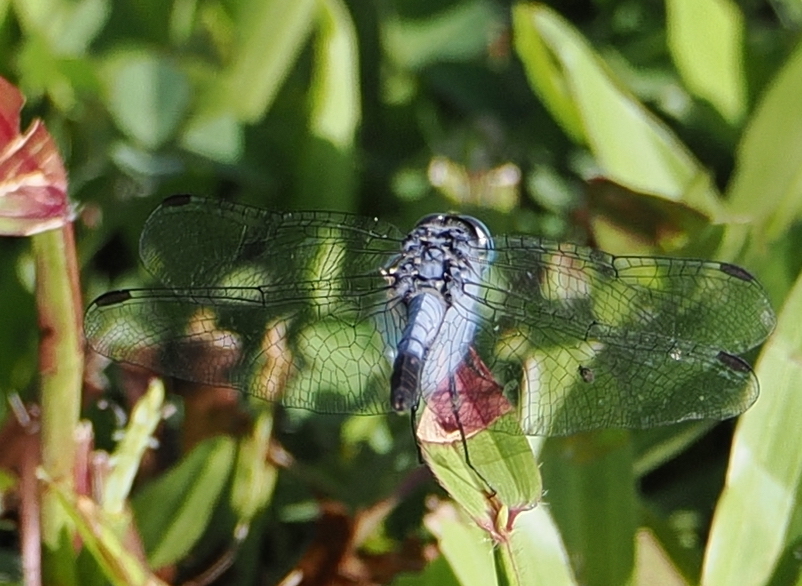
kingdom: Animalia
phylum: Arthropoda
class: Insecta
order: Odonata
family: Libellulidae
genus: Diplacodes
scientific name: Diplacodes trivialis
